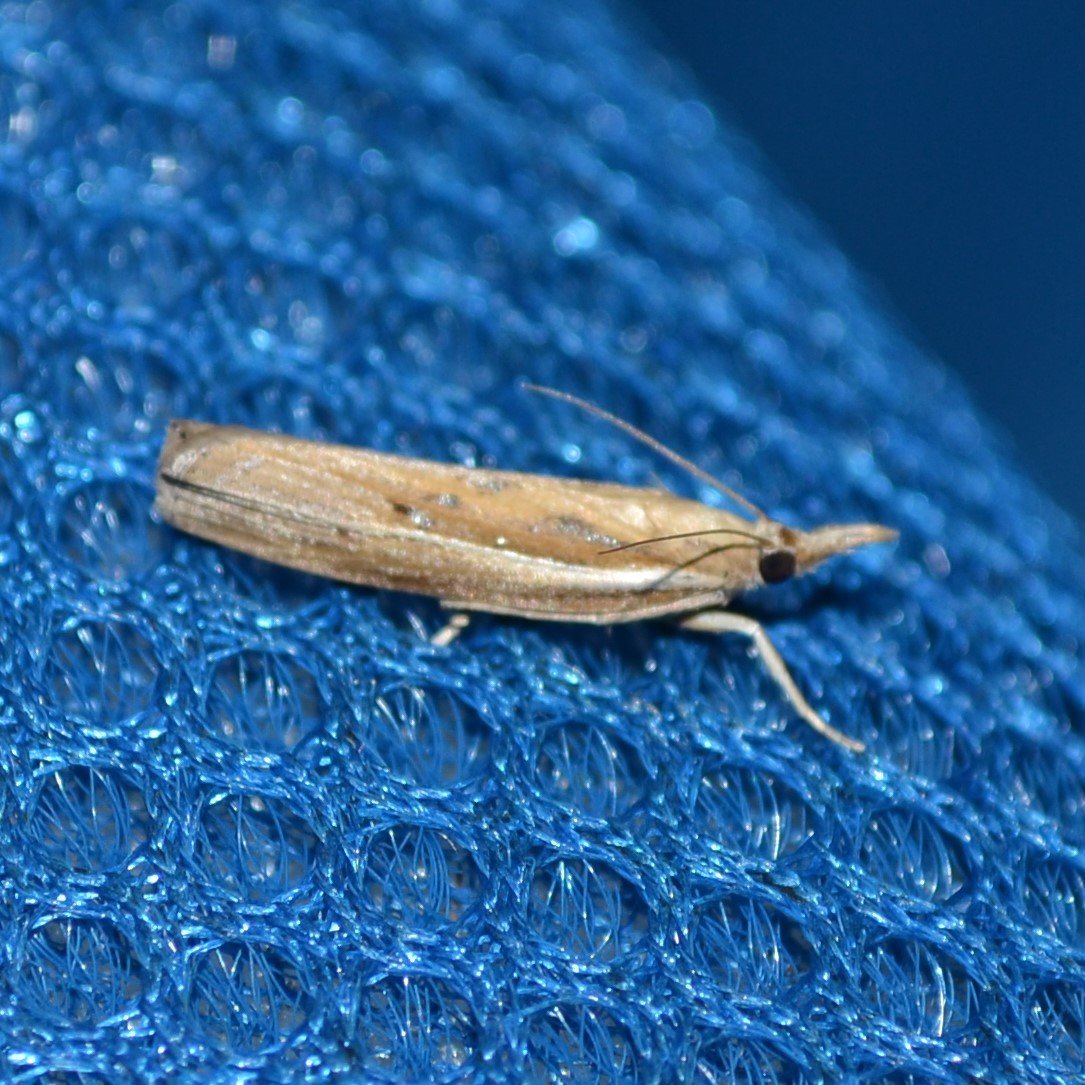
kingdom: Animalia
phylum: Arthropoda
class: Insecta
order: Lepidoptera
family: Crambidae
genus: Fissicrambus
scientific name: Fissicrambus fissiradiellus
